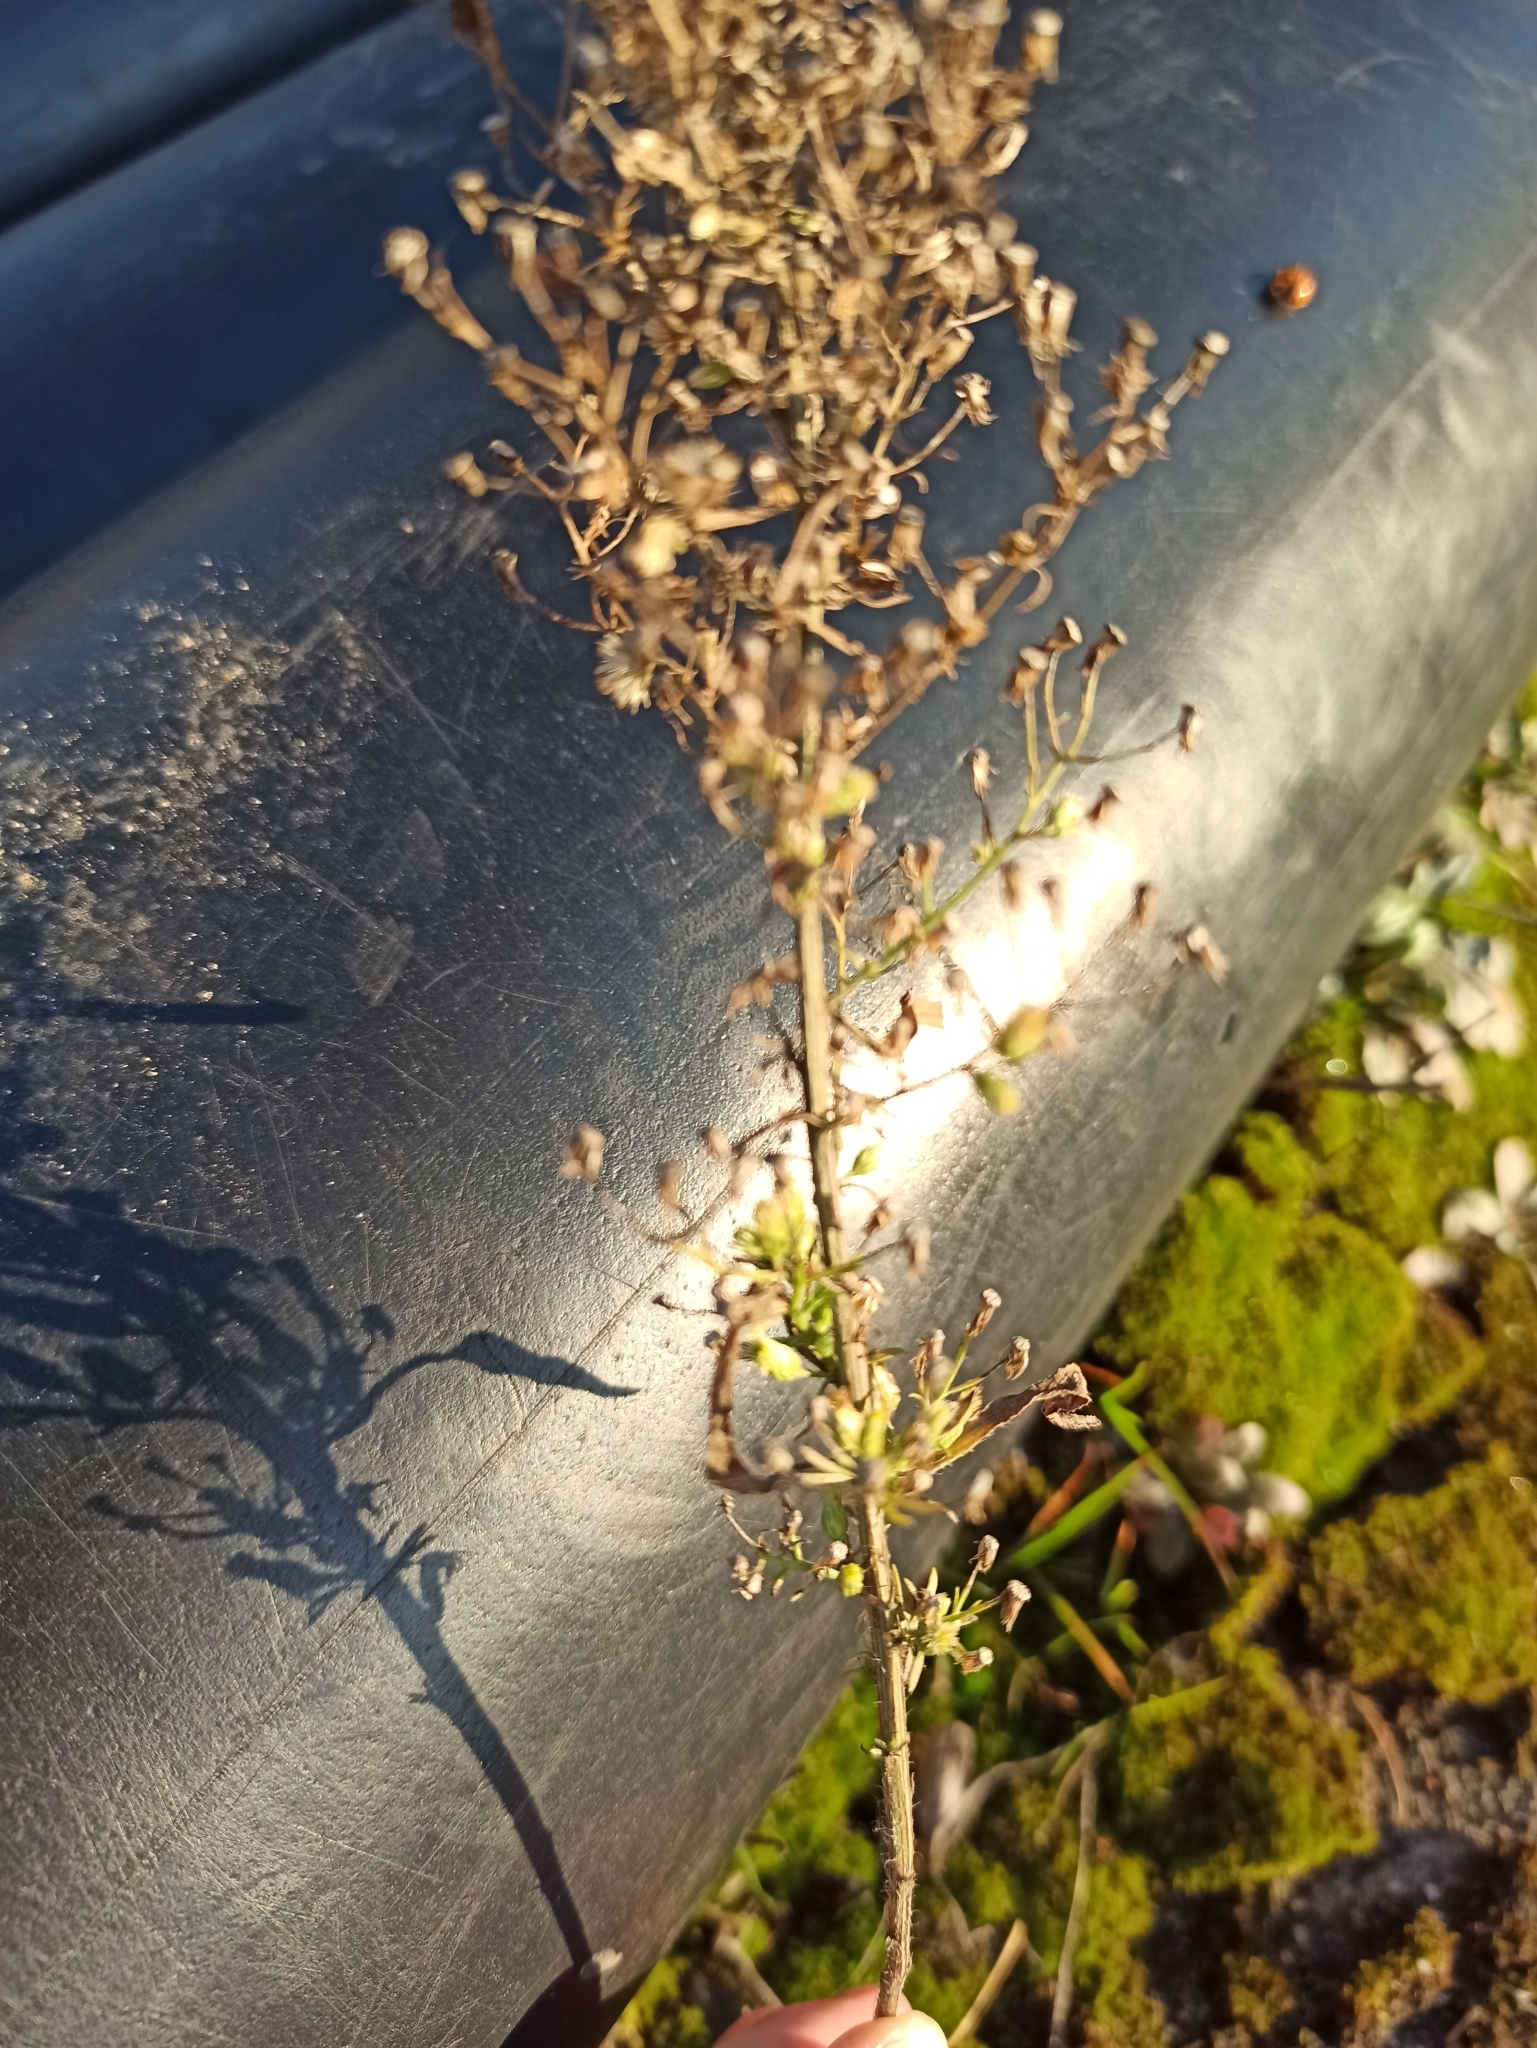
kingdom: Plantae
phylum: Tracheophyta
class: Magnoliopsida
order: Asterales
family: Asteraceae
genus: Erigeron
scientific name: Erigeron canadensis
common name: Canadian fleabane
